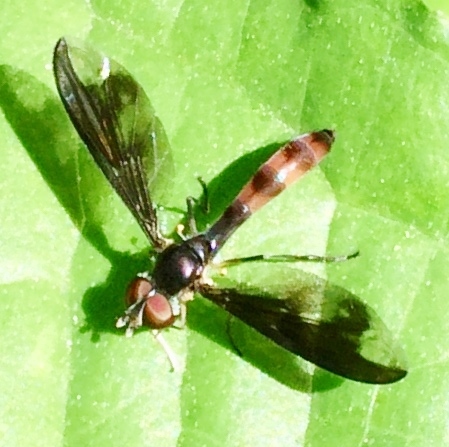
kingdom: Animalia
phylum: Arthropoda
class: Insecta
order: Diptera
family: Syrphidae
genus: Ocyptamus
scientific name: Ocyptamus fuscipennis
